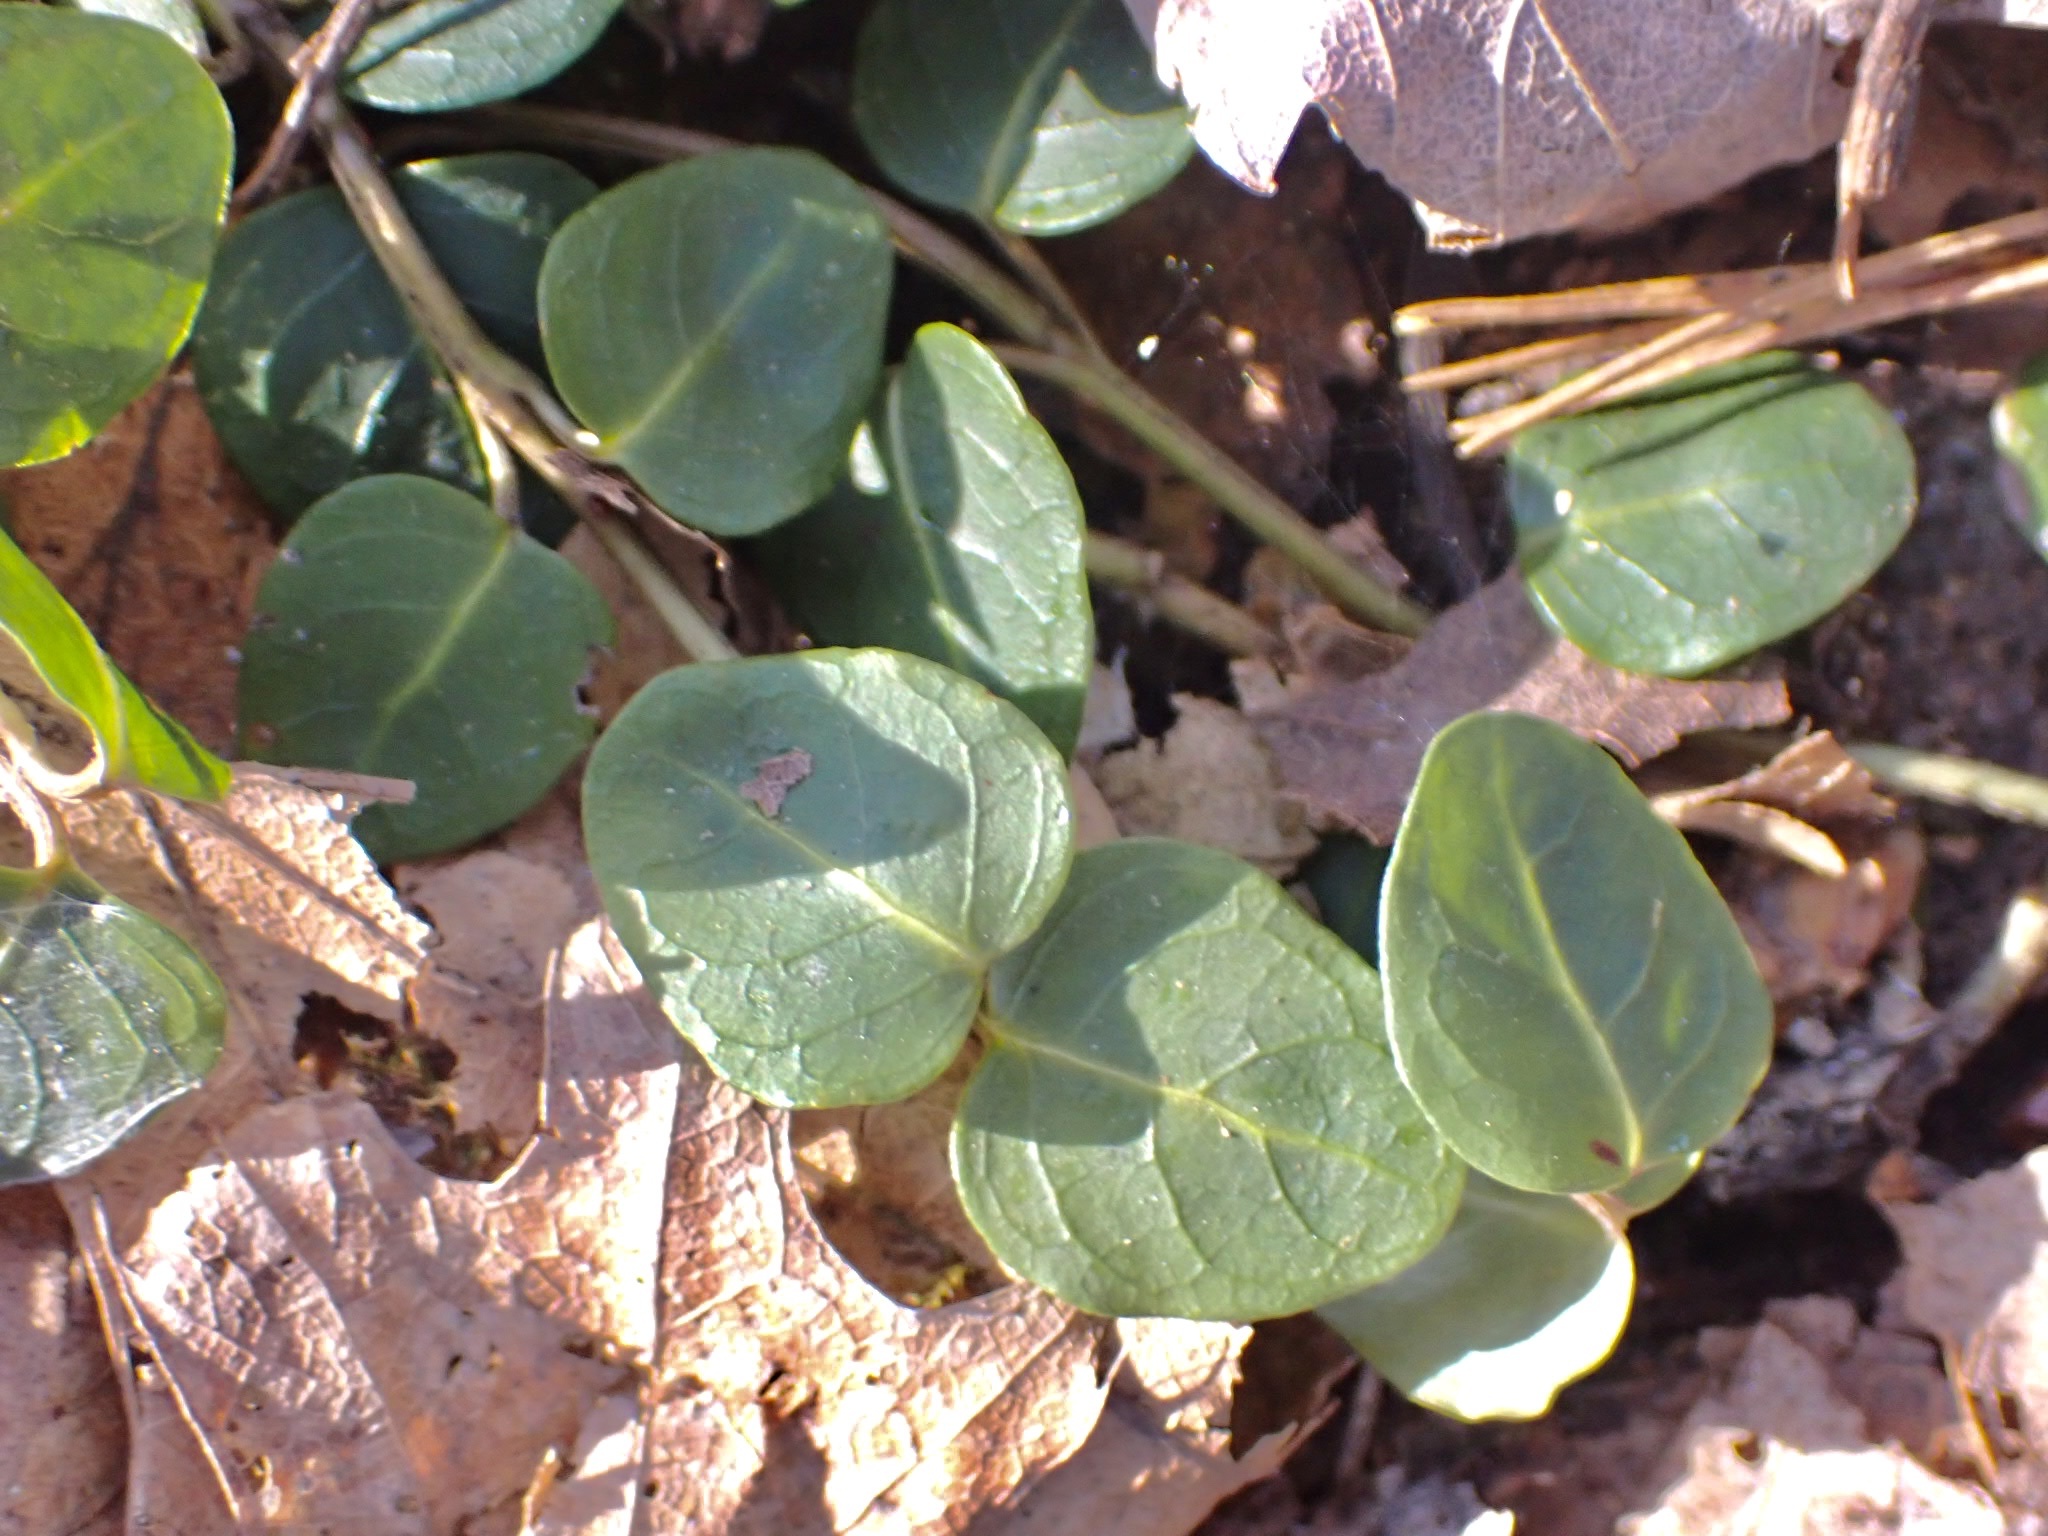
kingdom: Plantae
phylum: Tracheophyta
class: Magnoliopsida
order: Gentianales
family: Rubiaceae
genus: Mitchella
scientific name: Mitchella repens
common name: Partridge-berry
